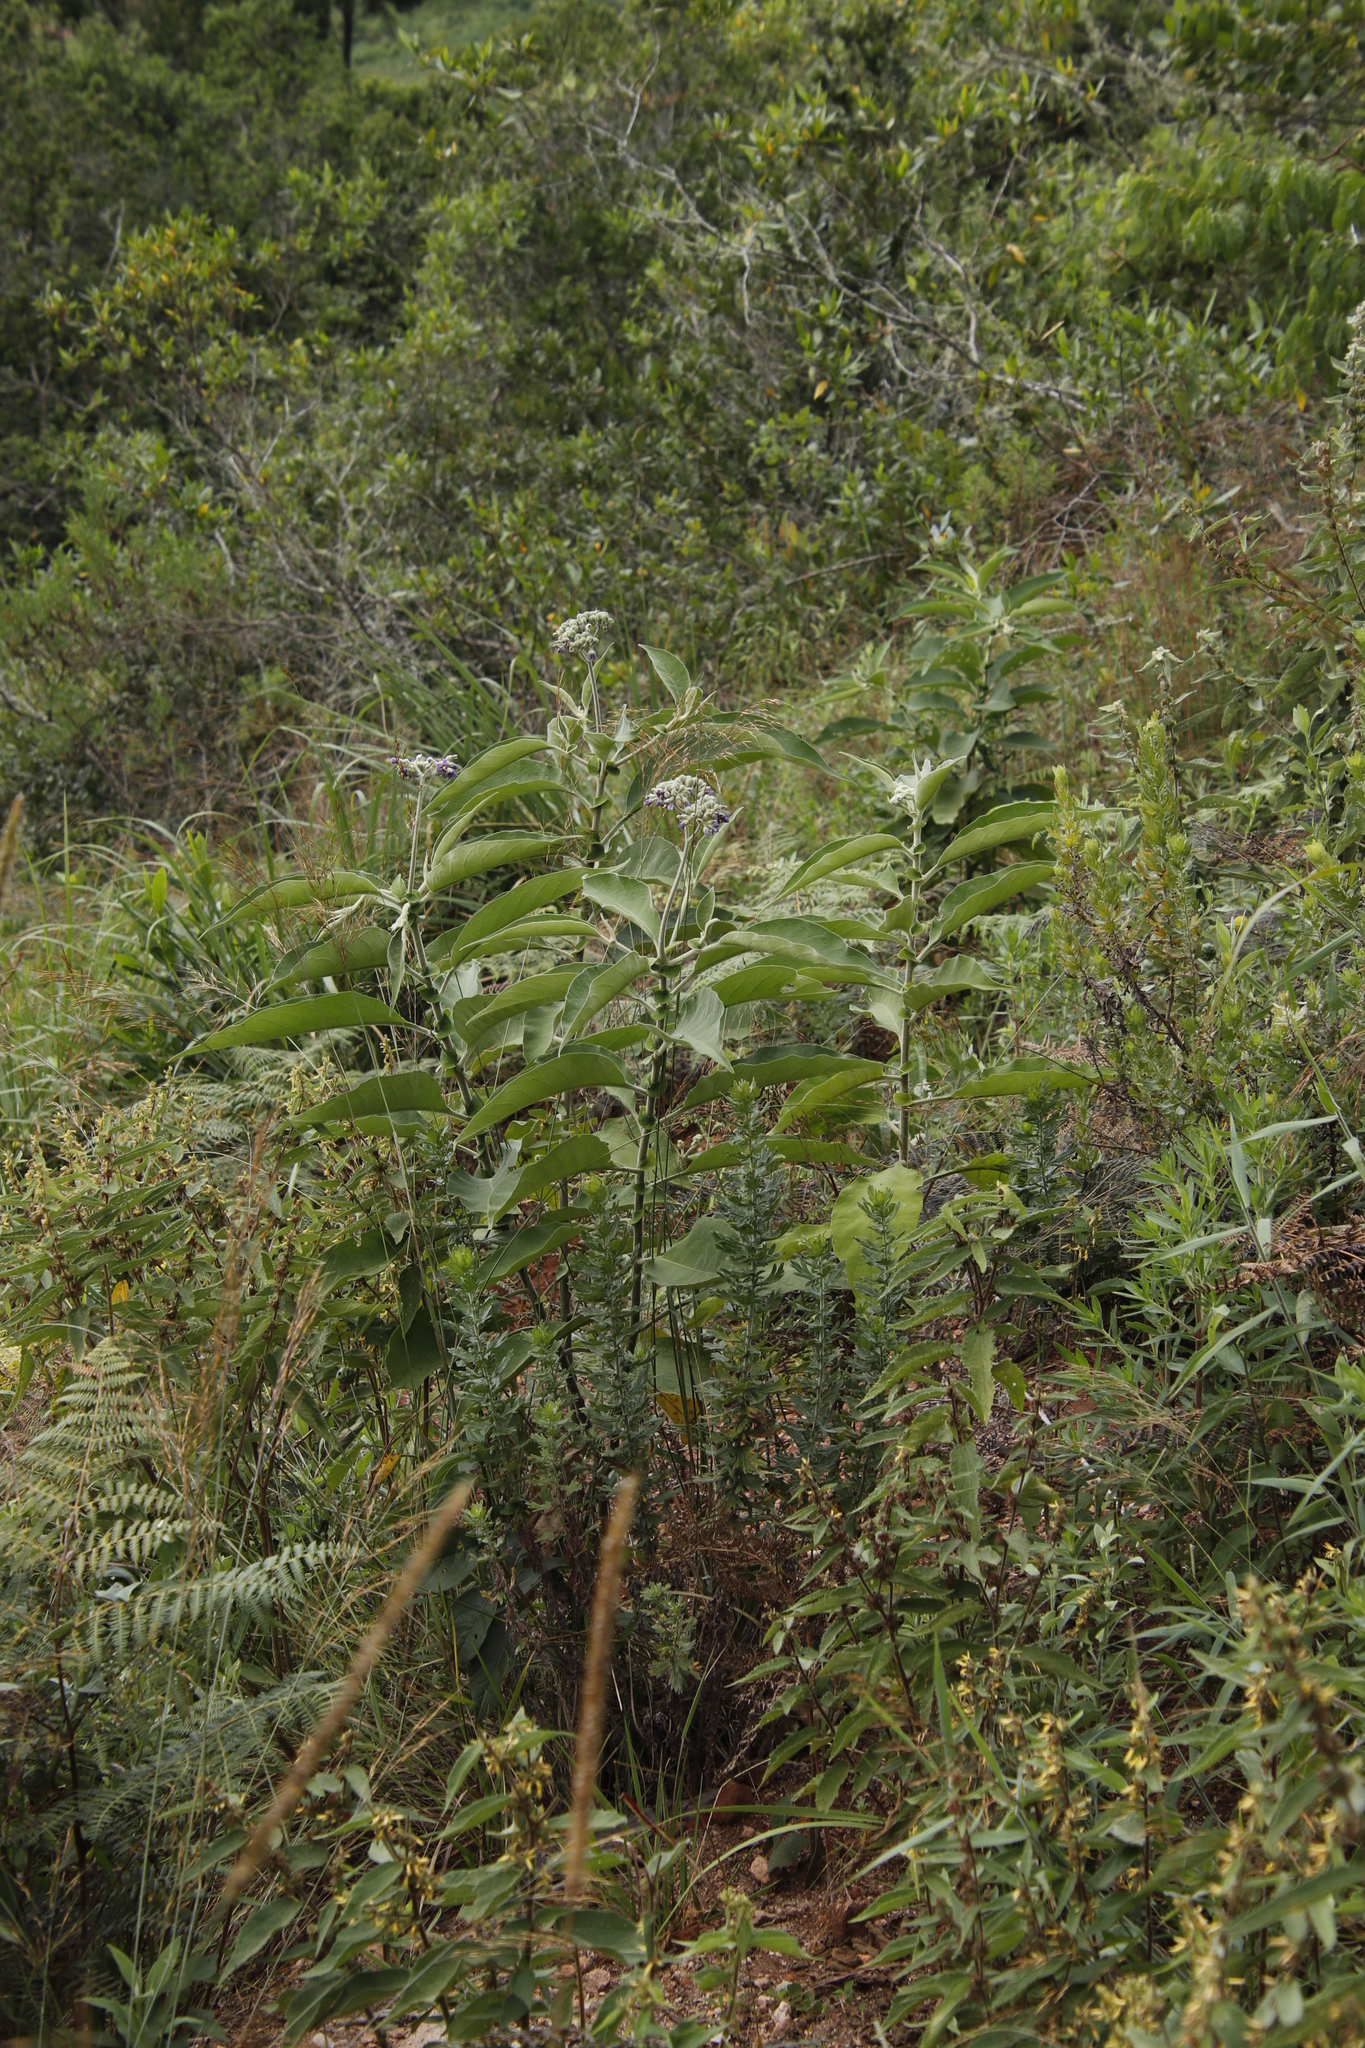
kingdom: Plantae
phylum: Tracheophyta
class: Magnoliopsida
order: Solanales
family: Solanaceae
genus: Solanum
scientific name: Solanum mauritianum
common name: Earleaf nightshade
